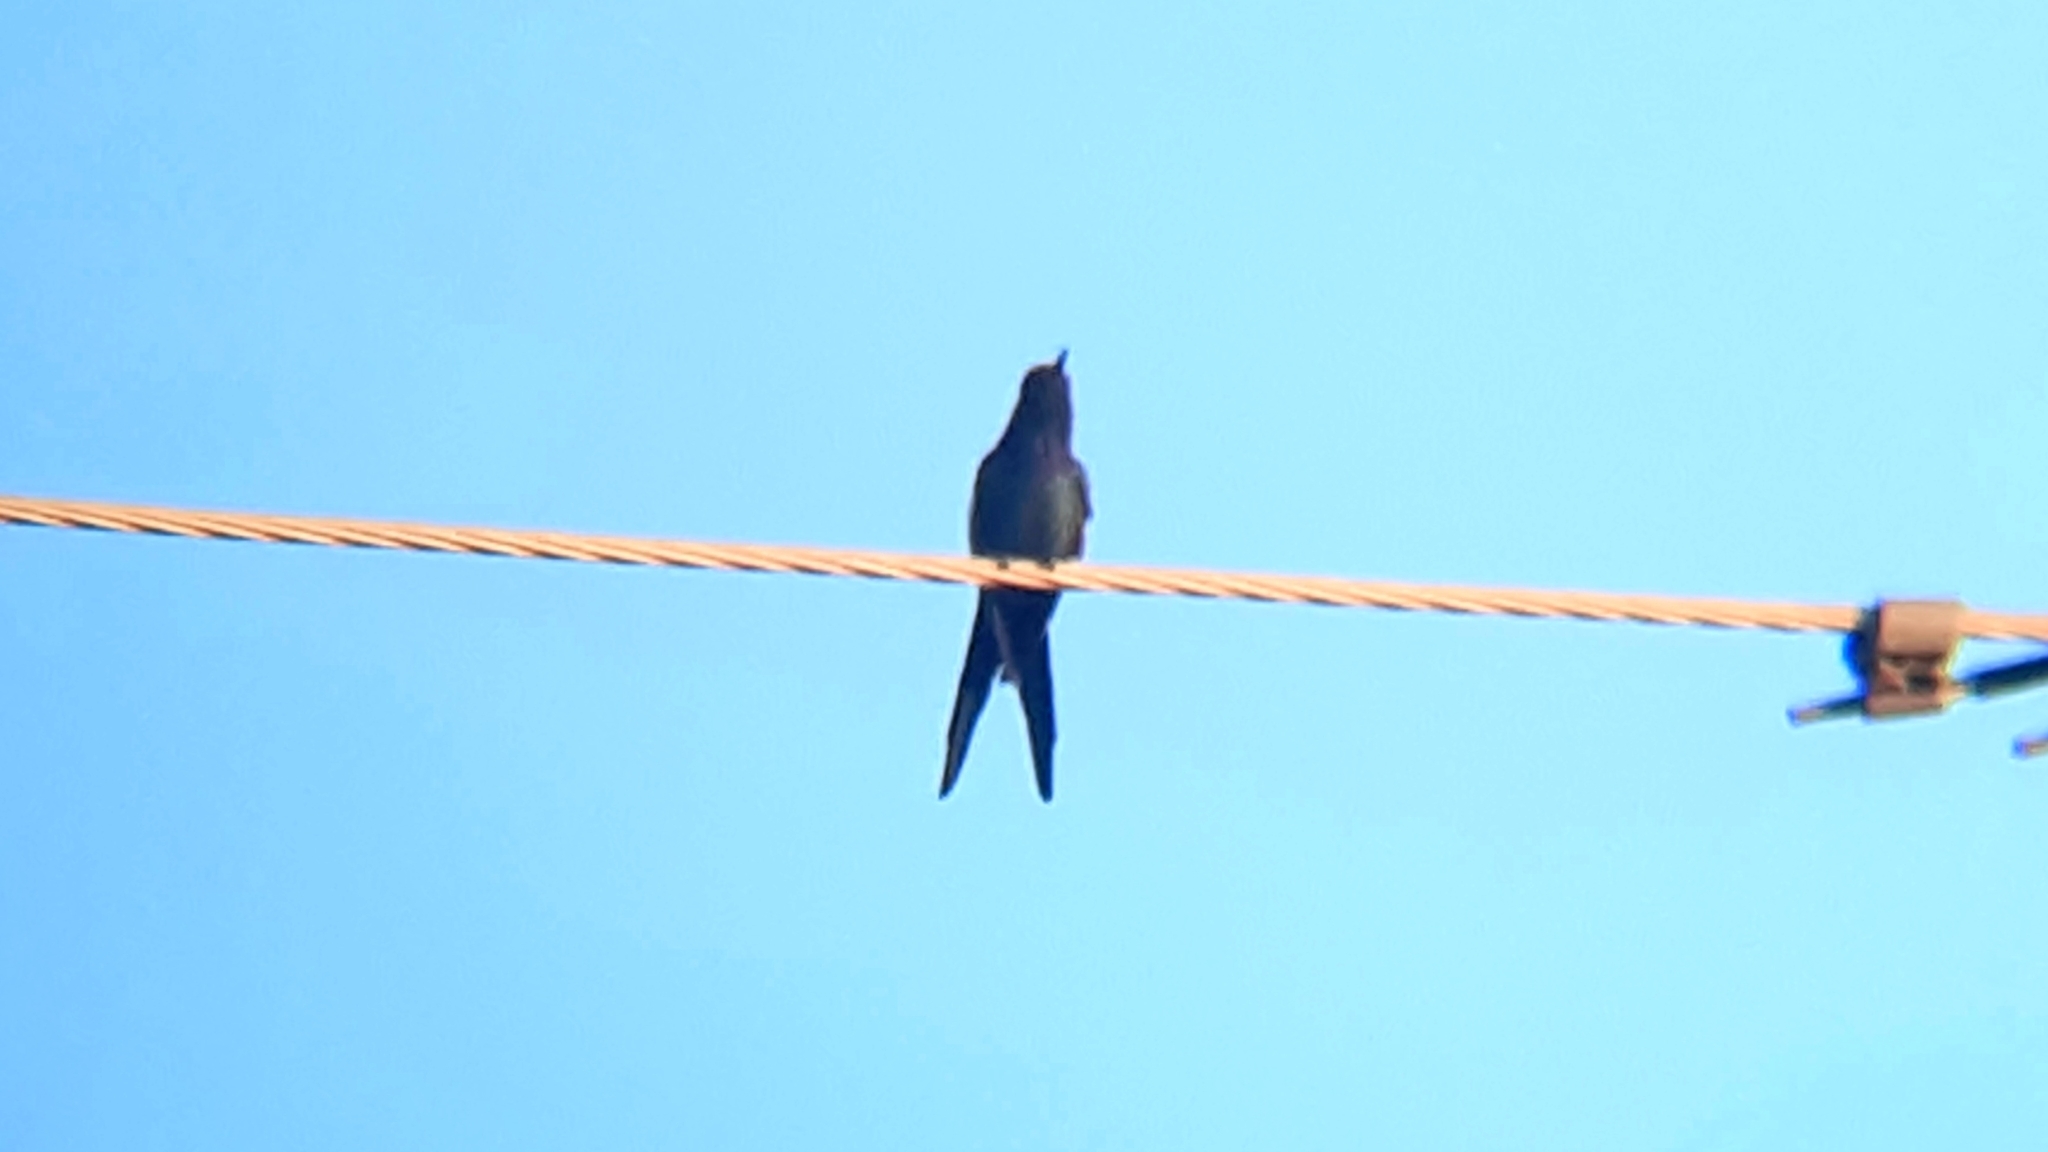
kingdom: Animalia
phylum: Chordata
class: Aves
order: Apodiformes
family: Trochilidae
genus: Eupetomena
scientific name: Eupetomena macroura
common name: Swallow-tailed hummingbird
